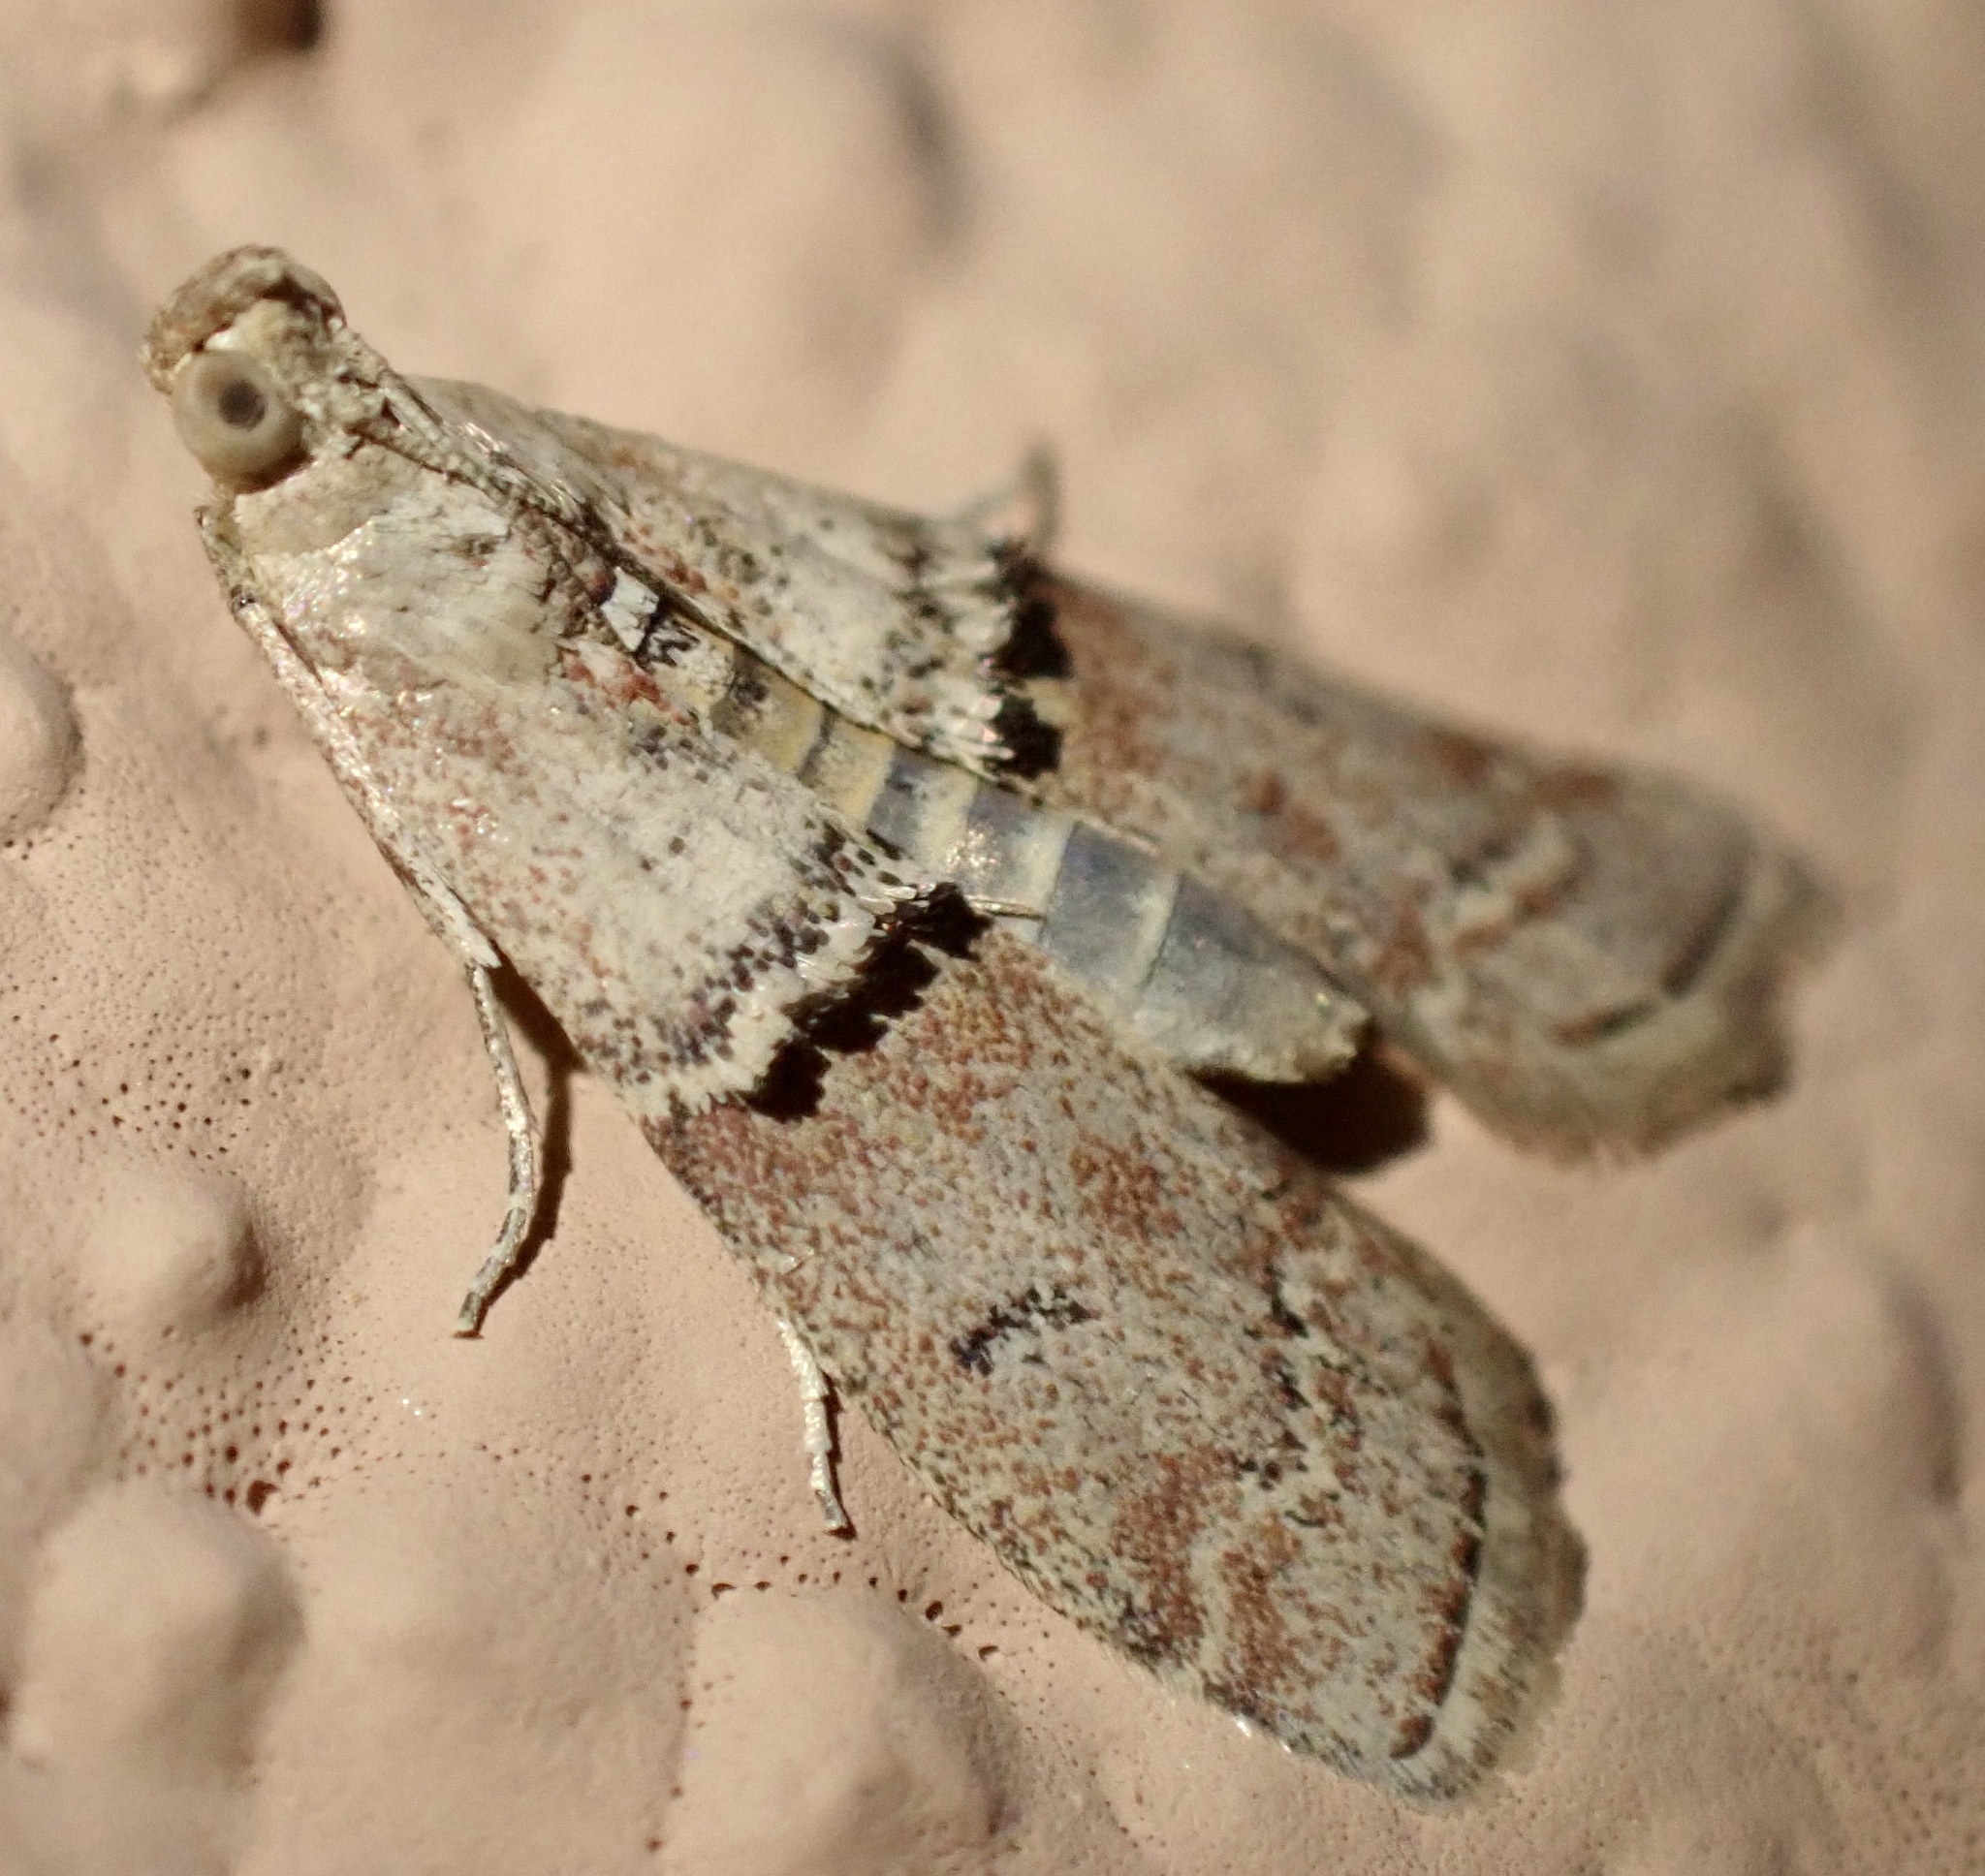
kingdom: Animalia
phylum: Arthropoda
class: Insecta
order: Lepidoptera
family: Pyralidae
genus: Pempelia
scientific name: Pempelia turturella
